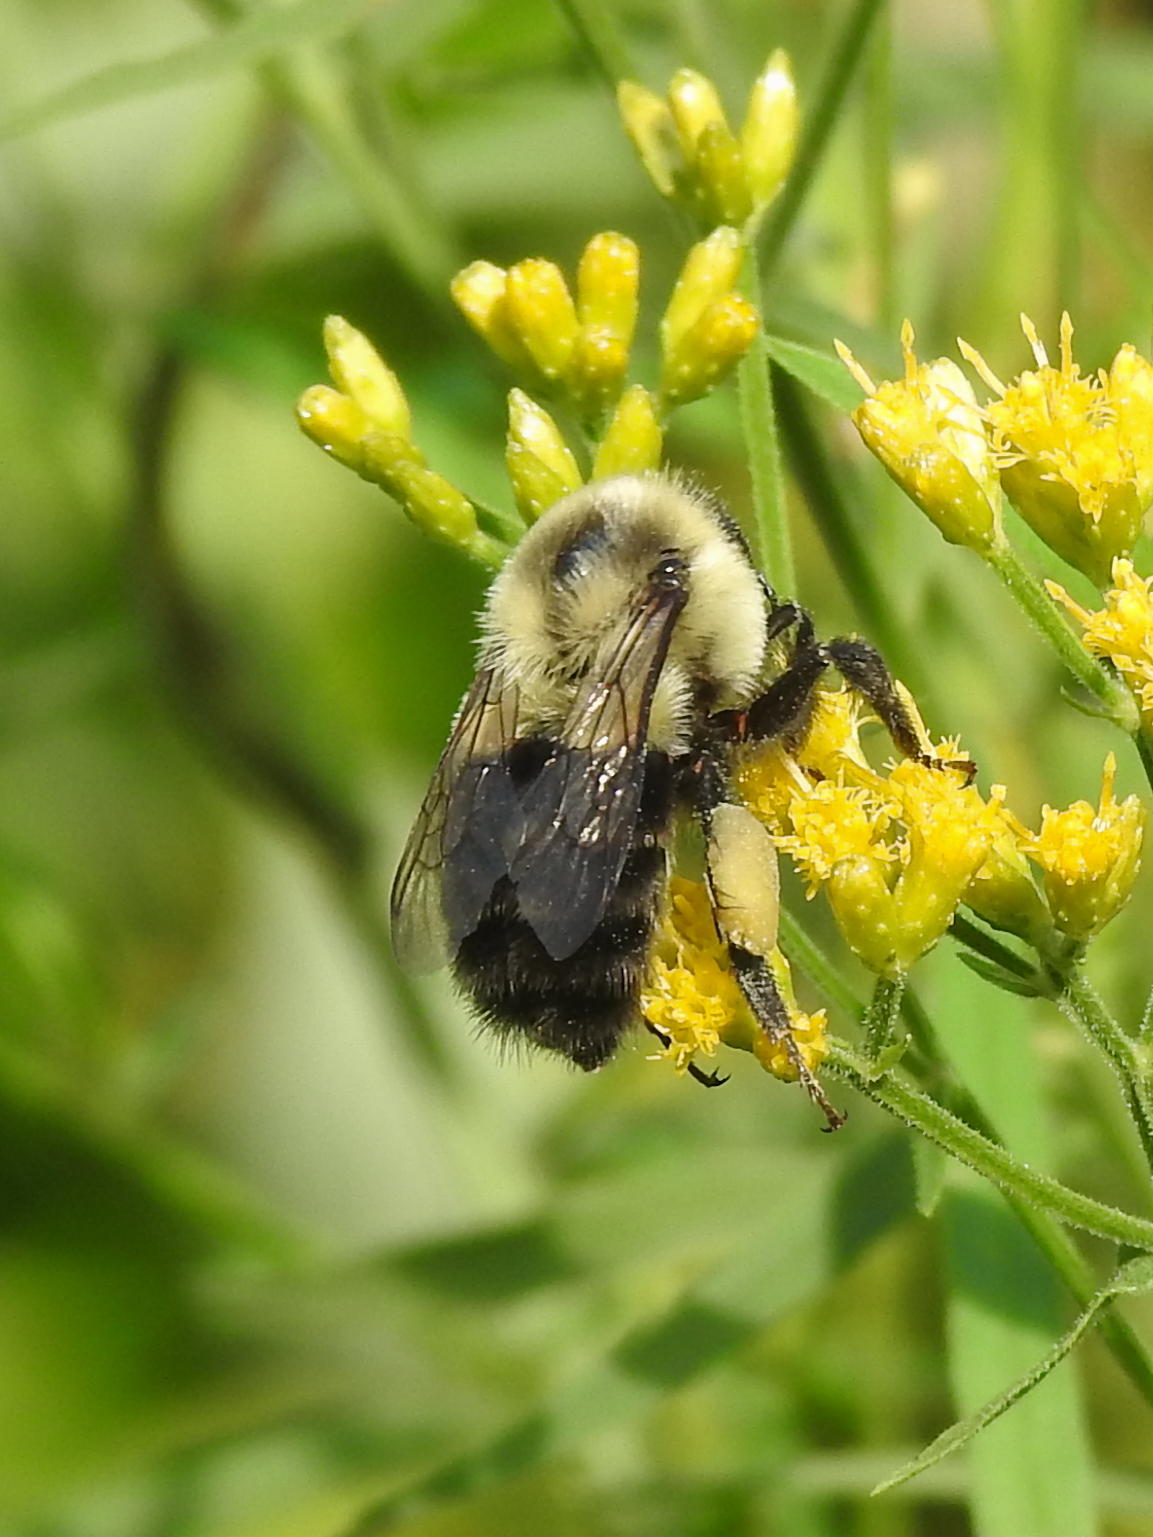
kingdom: Animalia
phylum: Arthropoda
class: Insecta
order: Hymenoptera
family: Apidae
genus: Bombus
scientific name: Bombus impatiens
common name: Common eastern bumble bee
